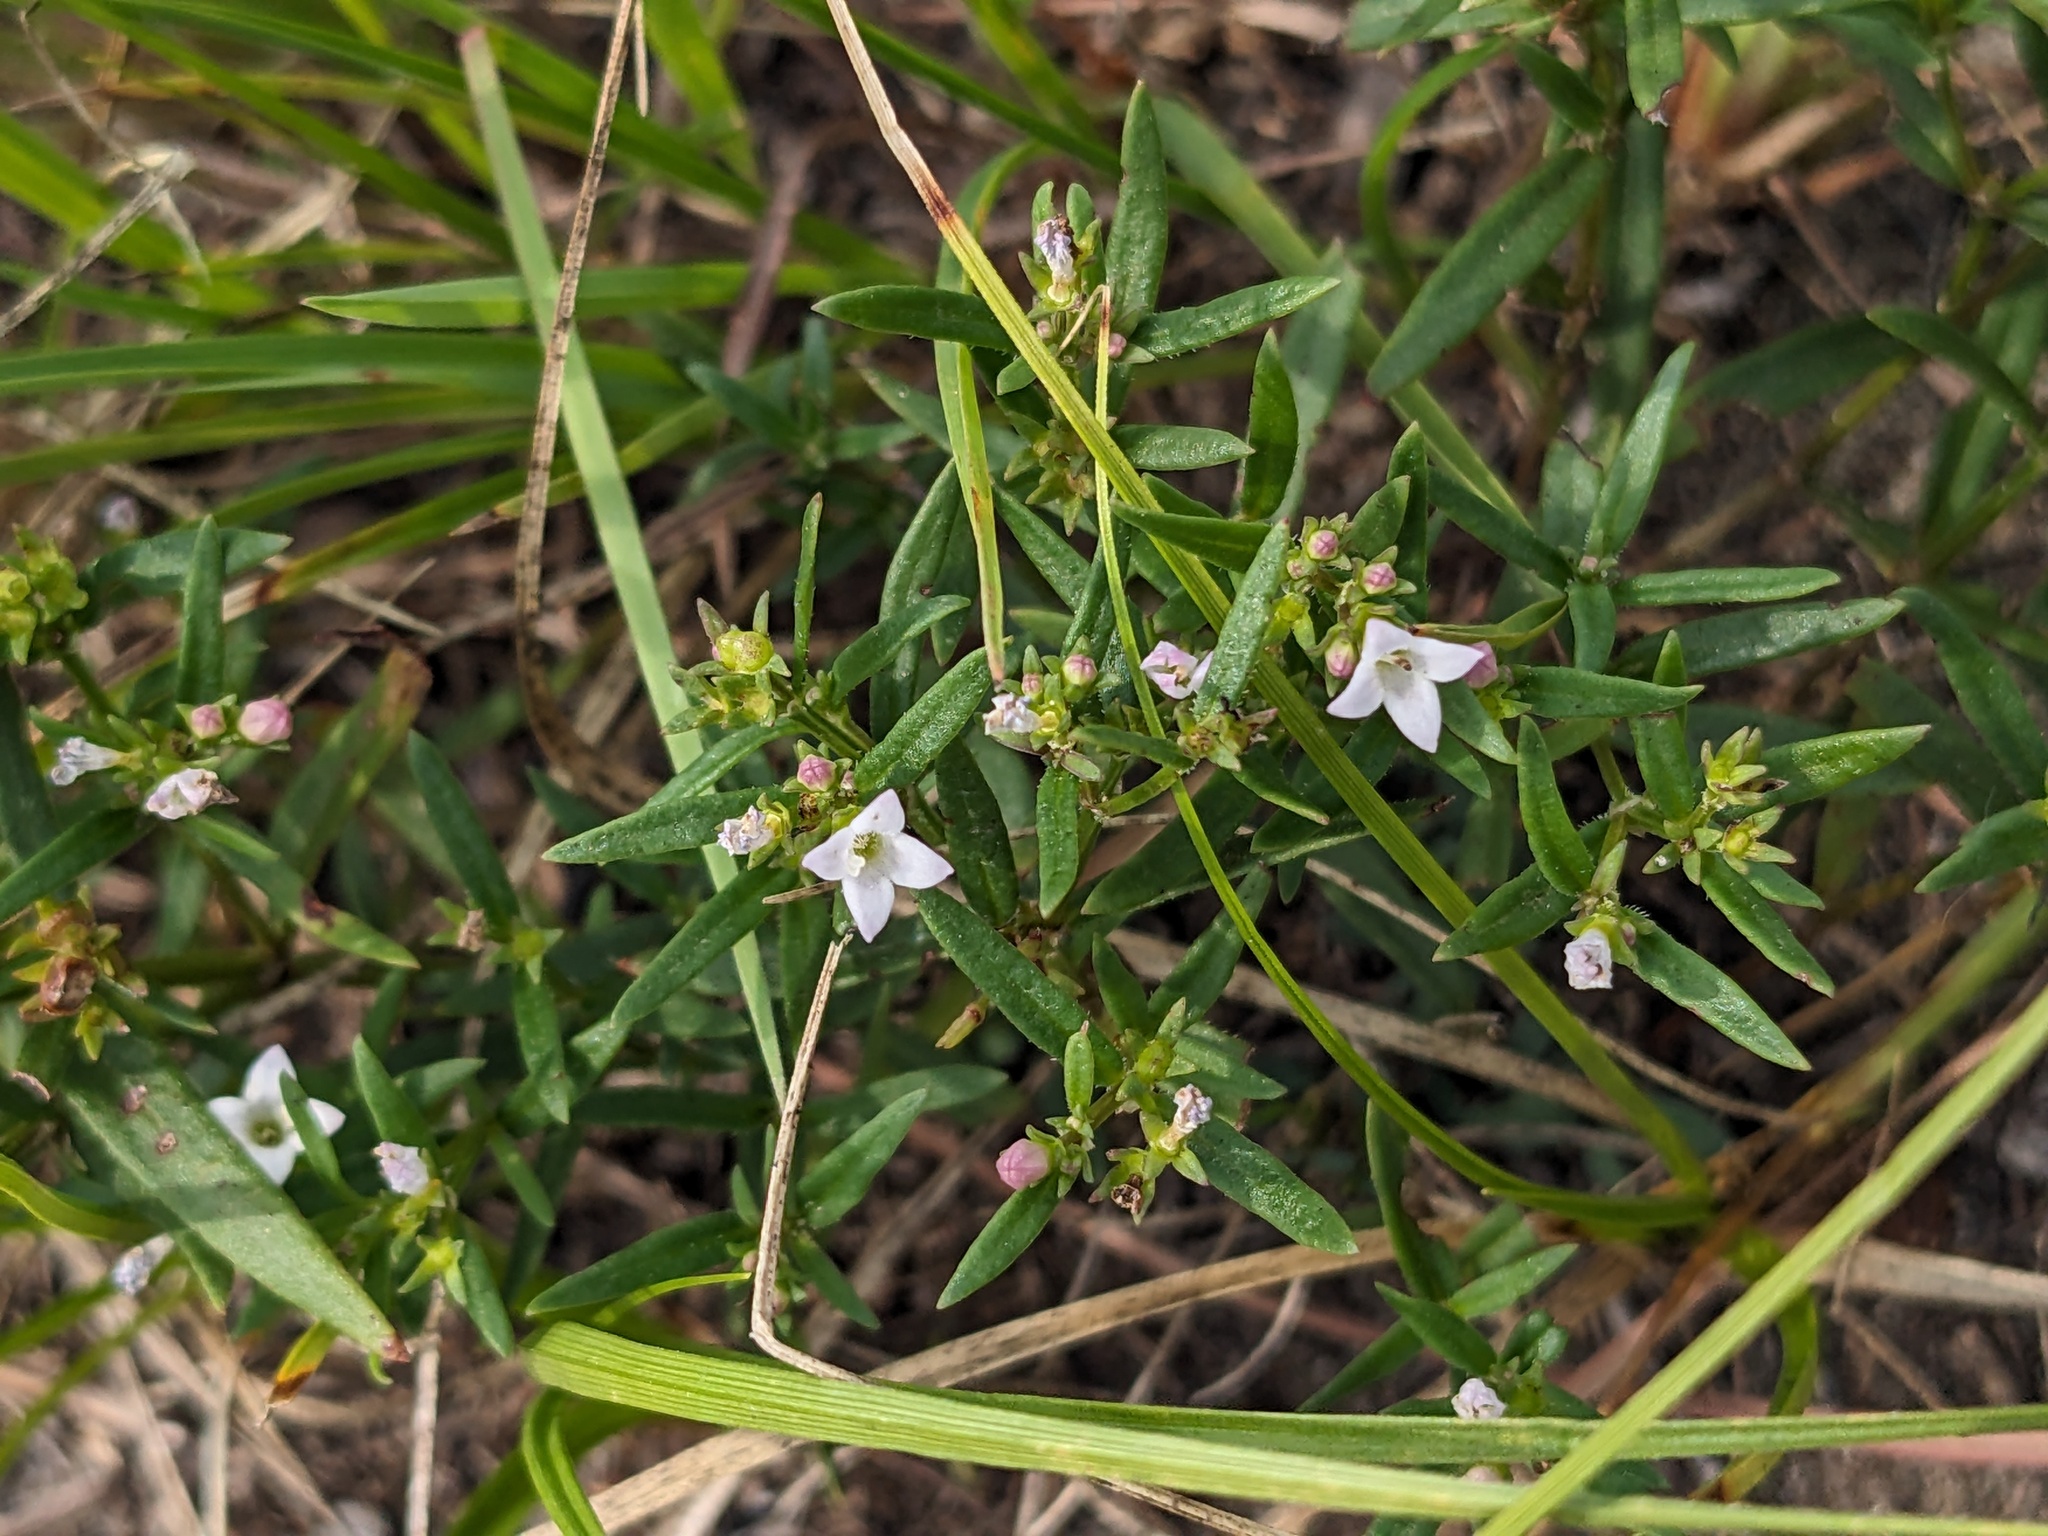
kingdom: Plantae
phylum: Tracheophyta
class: Magnoliopsida
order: Gentianales
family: Rubiaceae
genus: Houstonia
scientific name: Houstonia longifolia
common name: Long-leaved bluets
